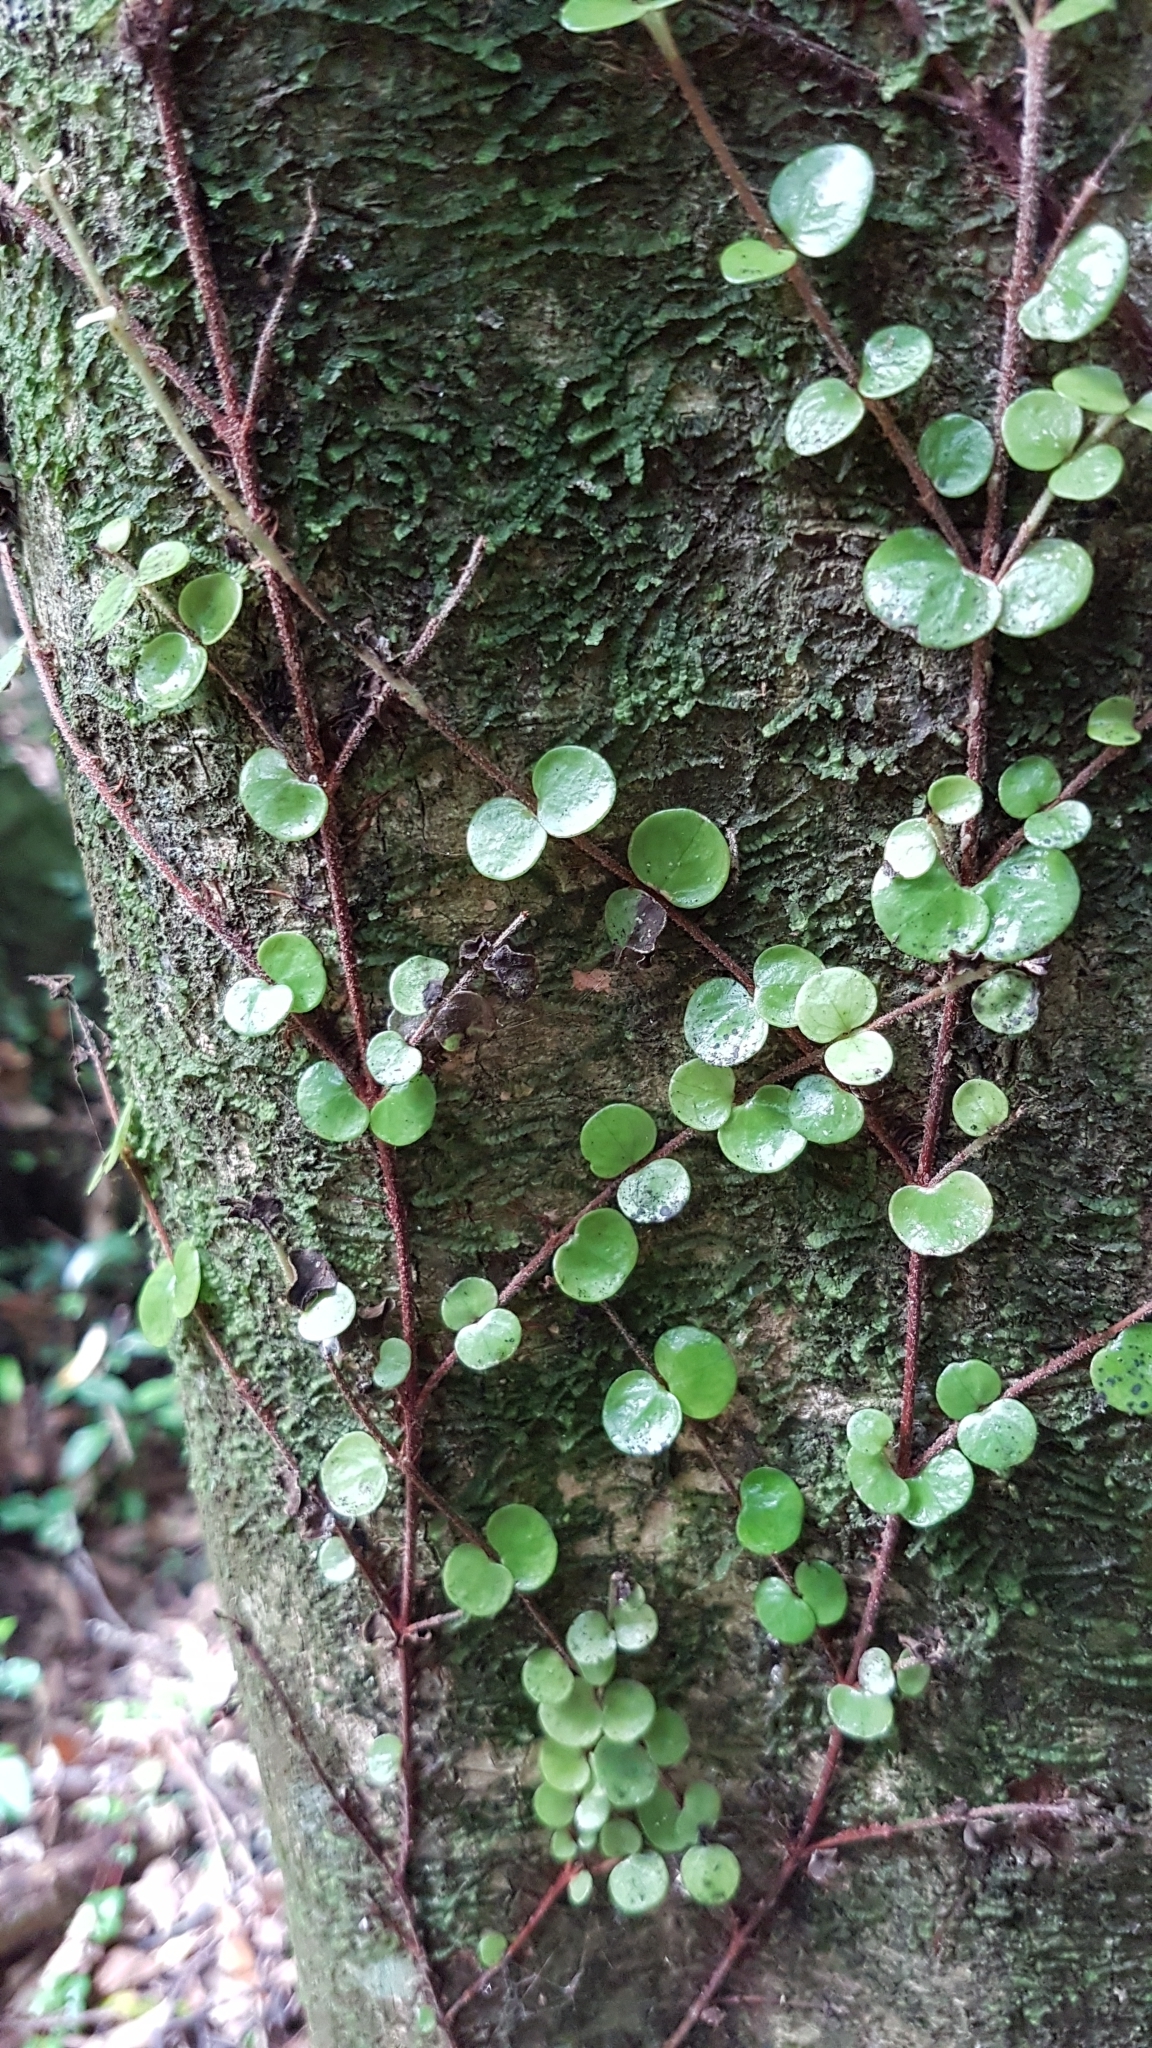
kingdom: Plantae
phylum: Tracheophyta
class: Magnoliopsida
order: Myrtales
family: Myrtaceae
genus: Metrosideros
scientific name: Metrosideros perforata
